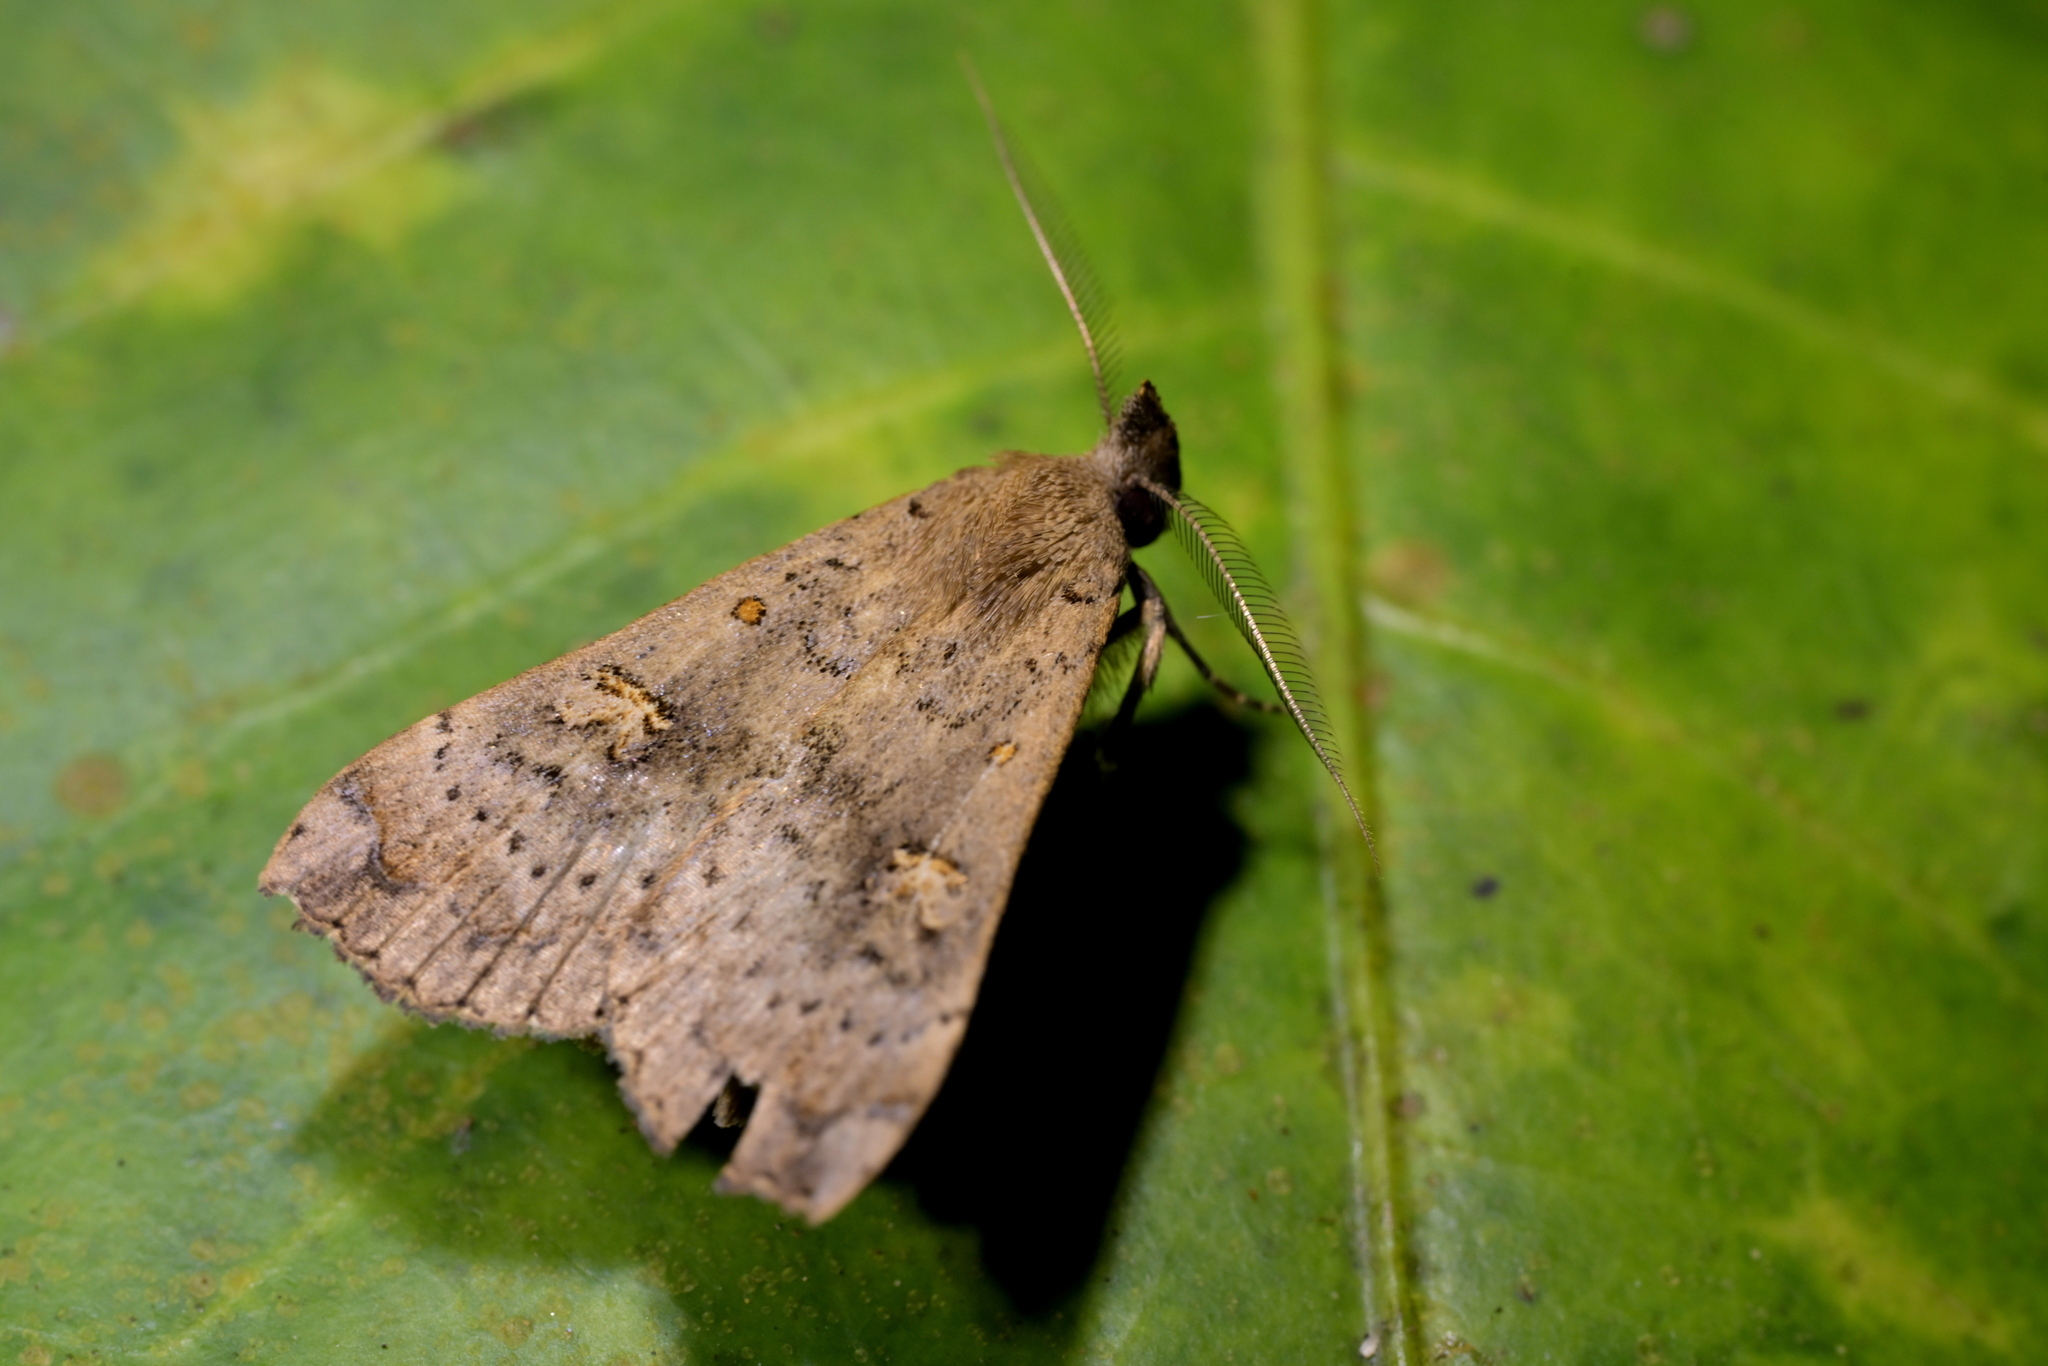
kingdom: Animalia
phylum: Arthropoda
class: Insecta
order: Lepidoptera
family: Erebidae
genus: Rhapsa
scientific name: Rhapsa scotosialis
